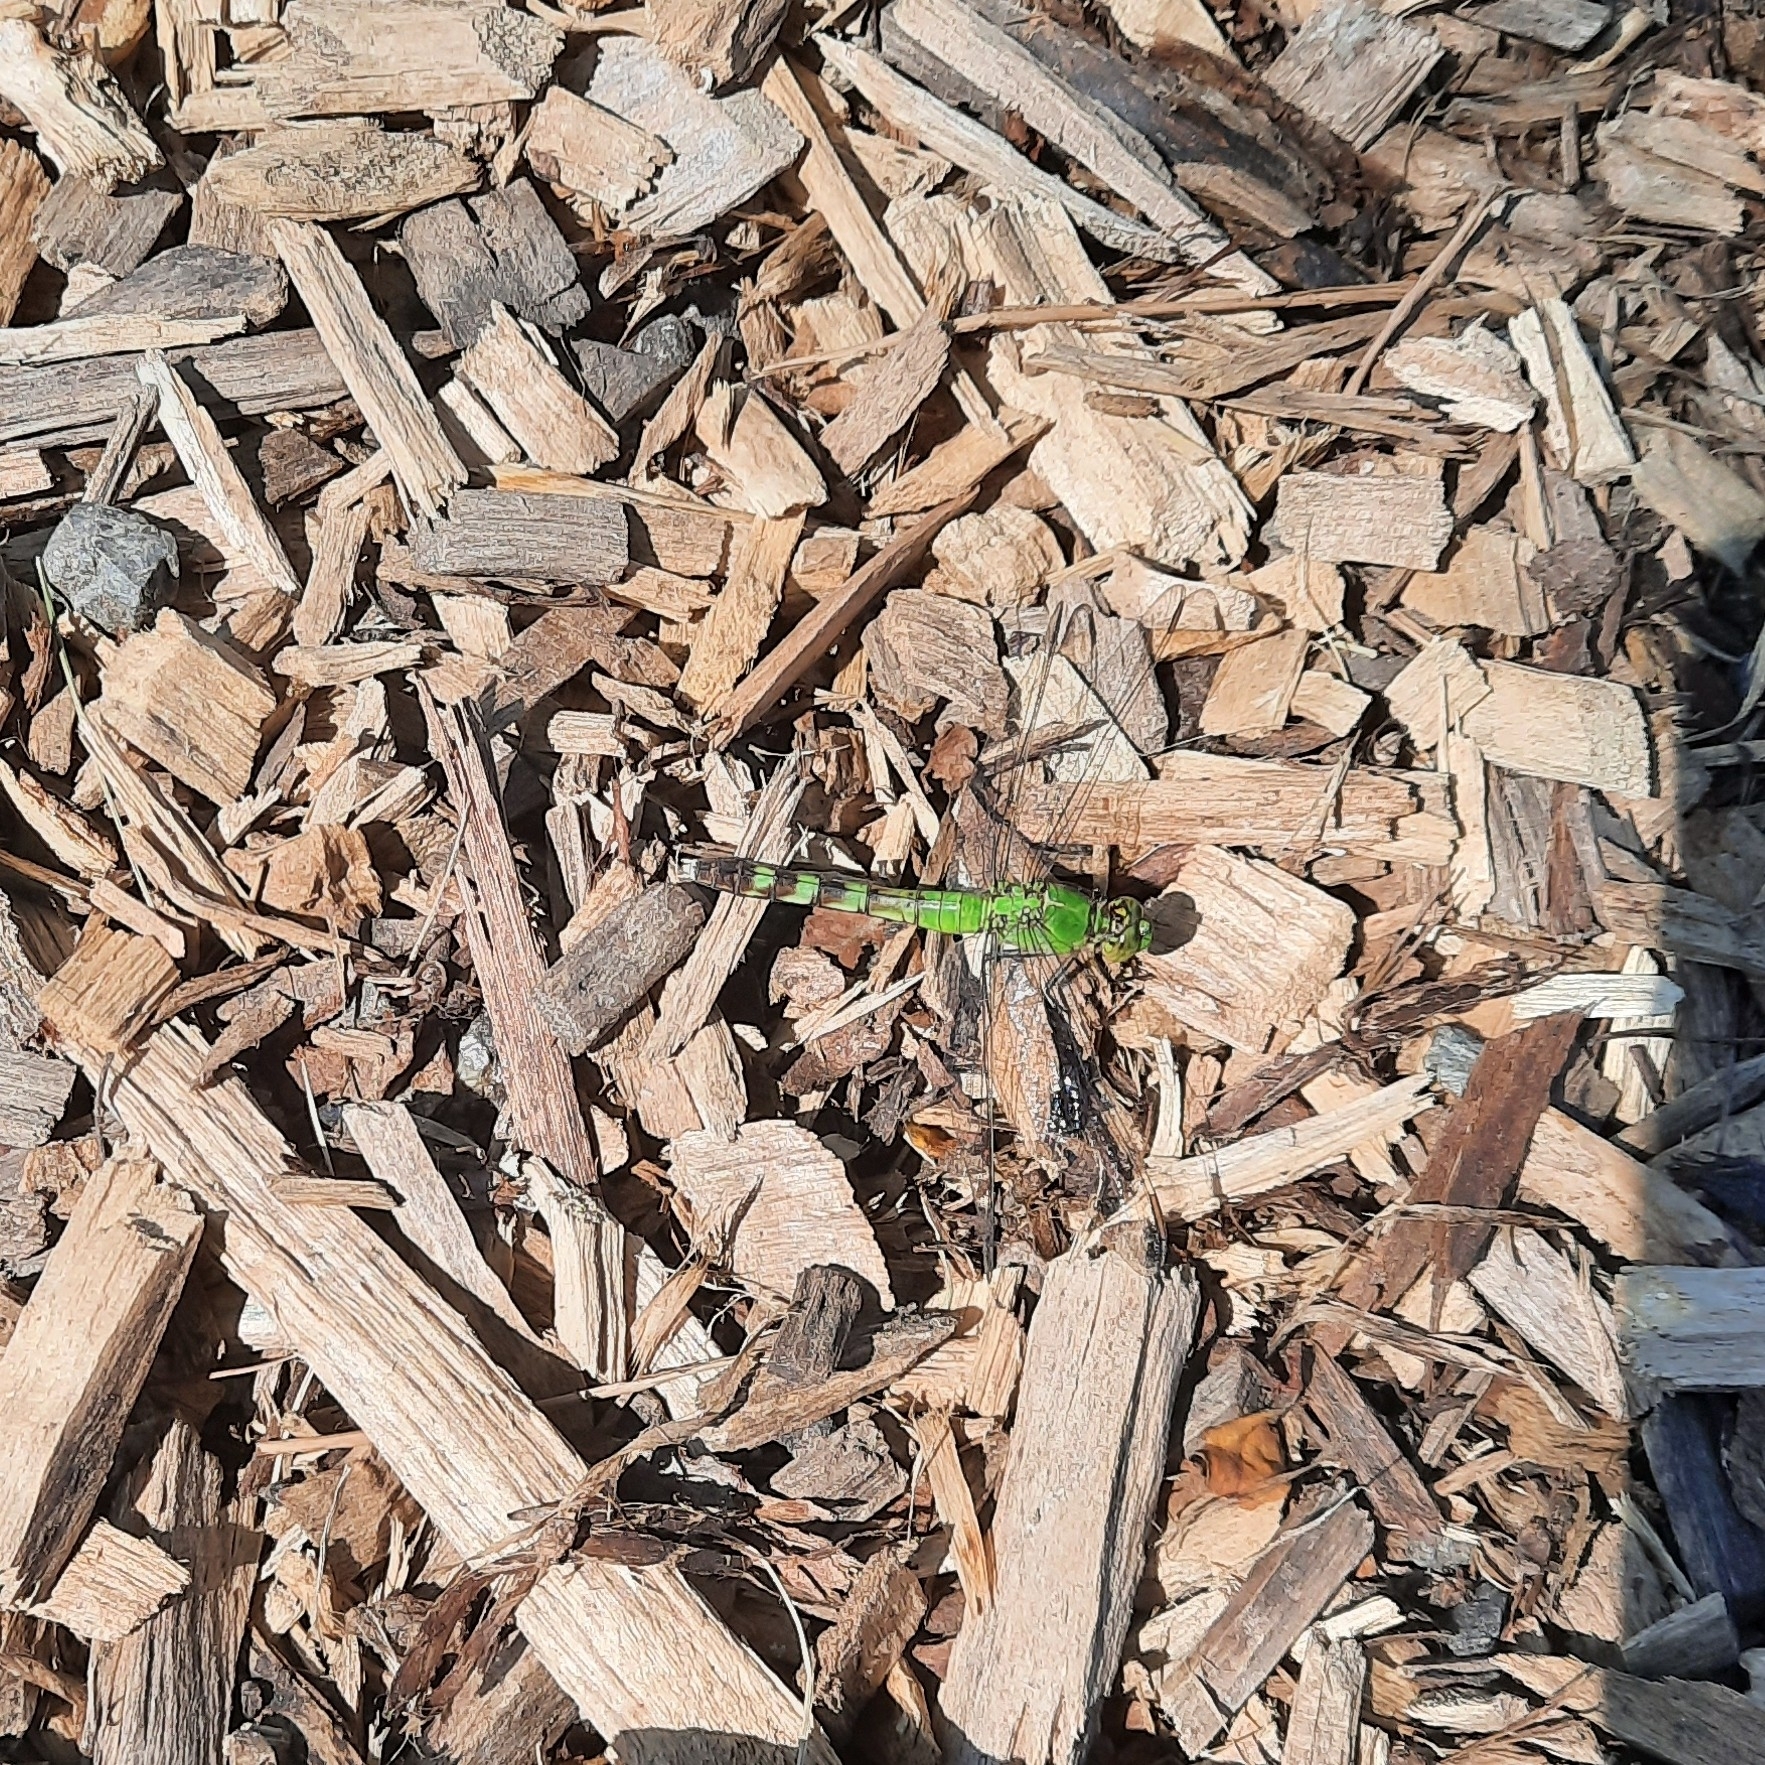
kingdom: Animalia
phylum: Arthropoda
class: Insecta
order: Odonata
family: Libellulidae
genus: Erythemis
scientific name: Erythemis simplicicollis
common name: Eastern pondhawk
